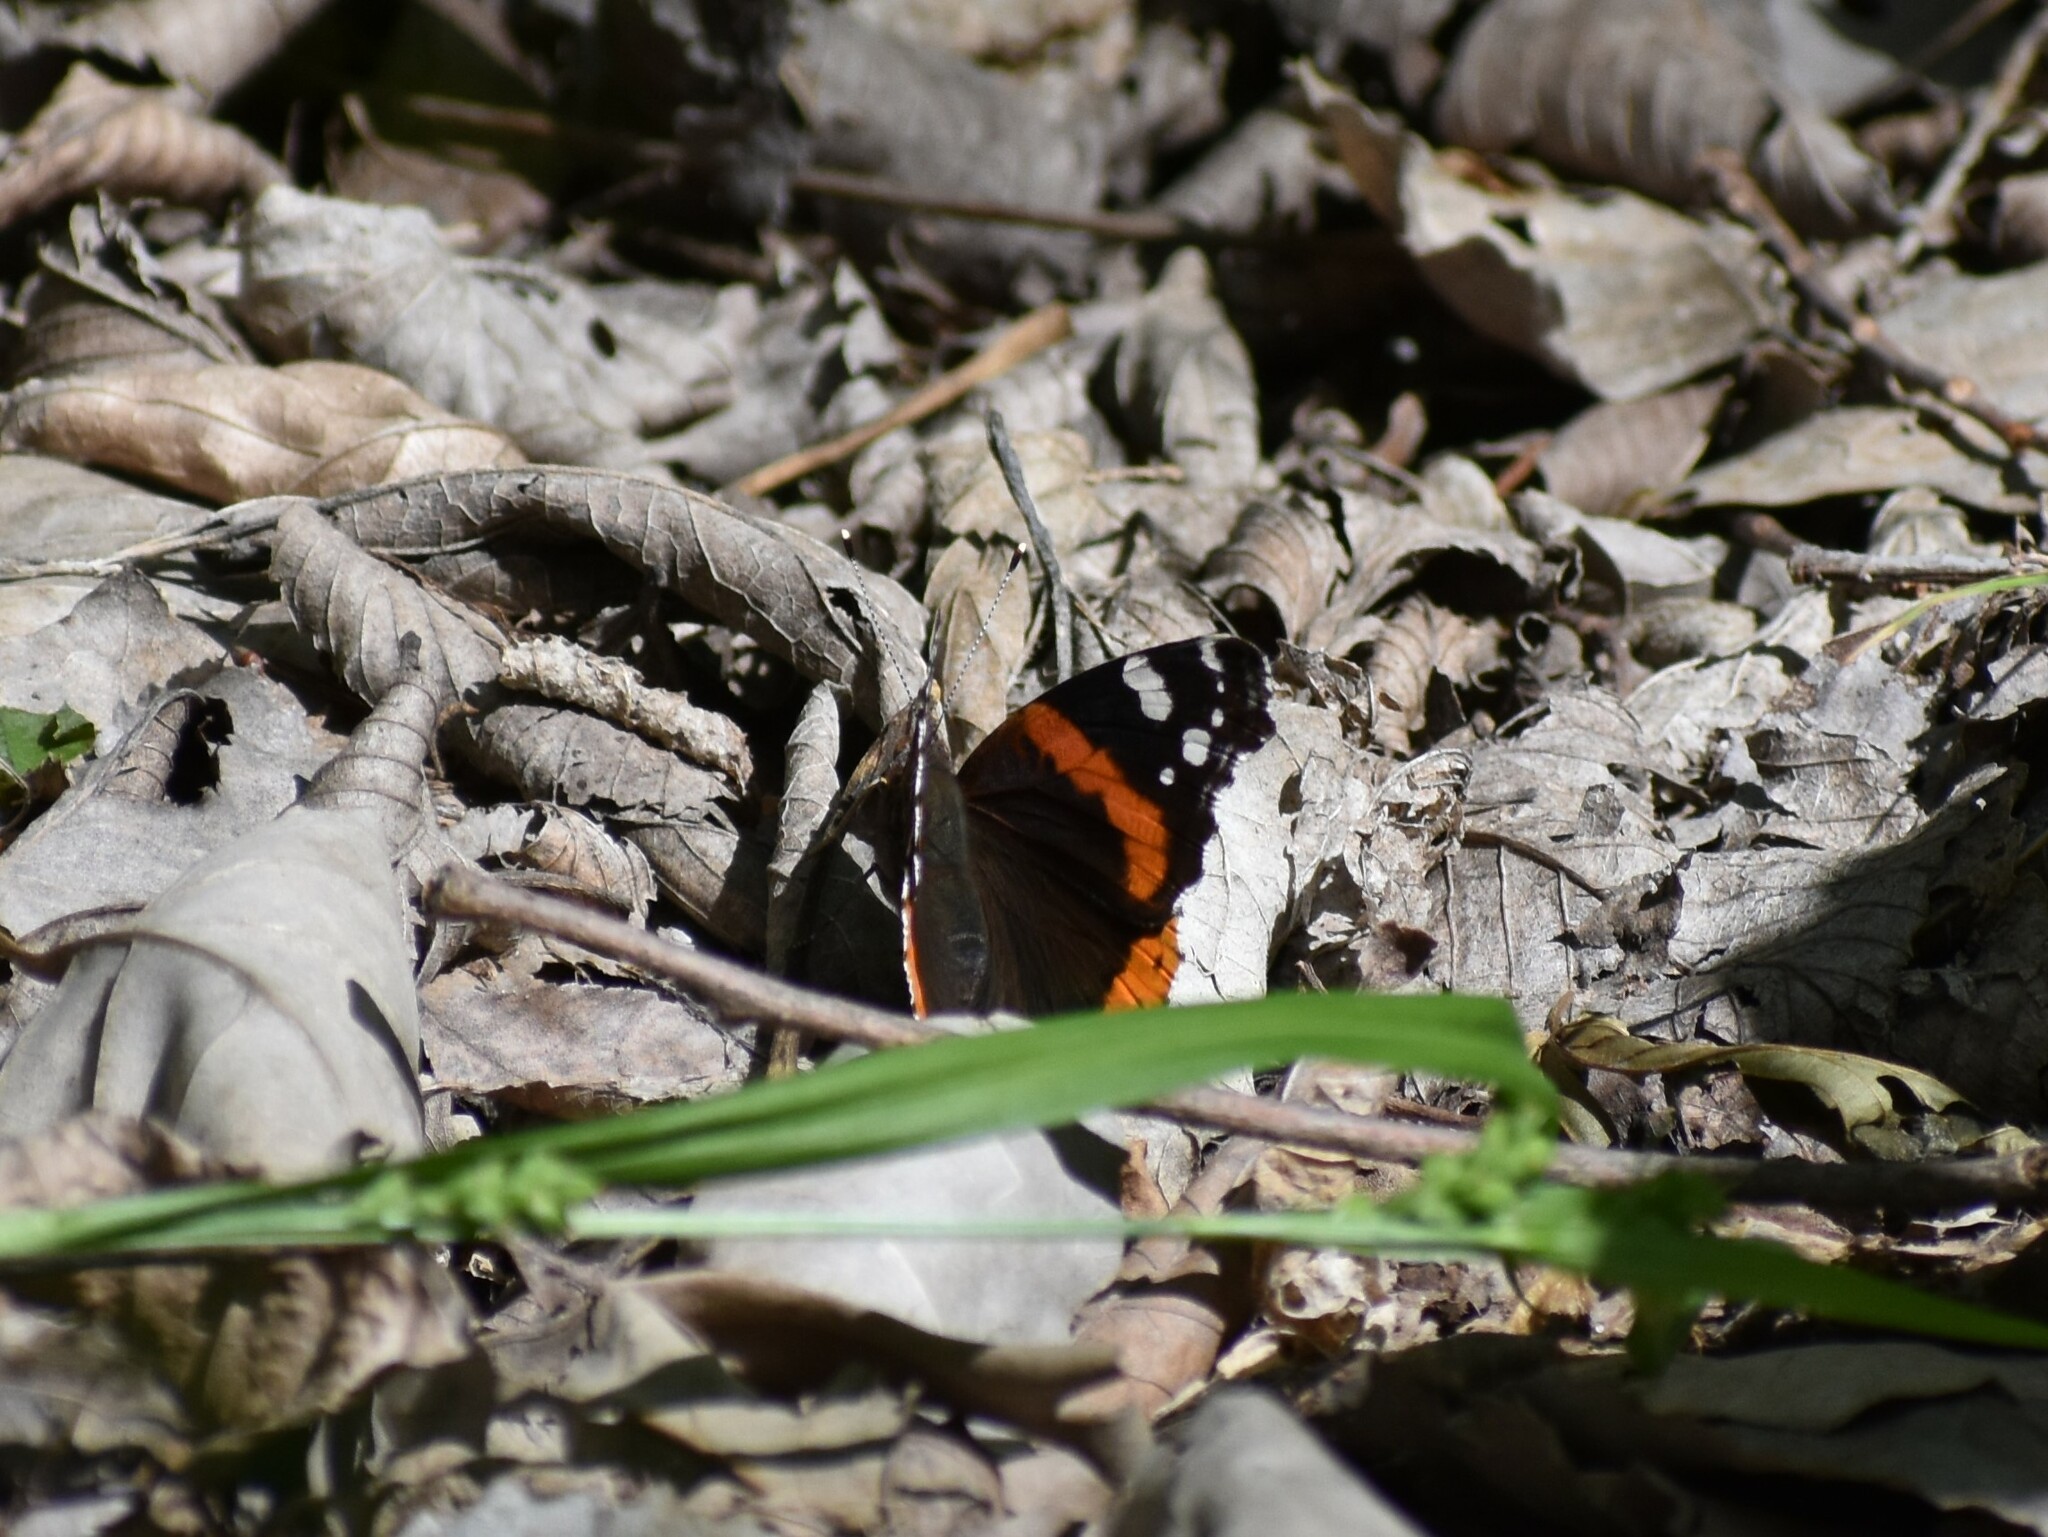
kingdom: Animalia
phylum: Arthropoda
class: Insecta
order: Lepidoptera
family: Nymphalidae
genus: Vanessa
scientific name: Vanessa atalanta
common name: Red admiral
